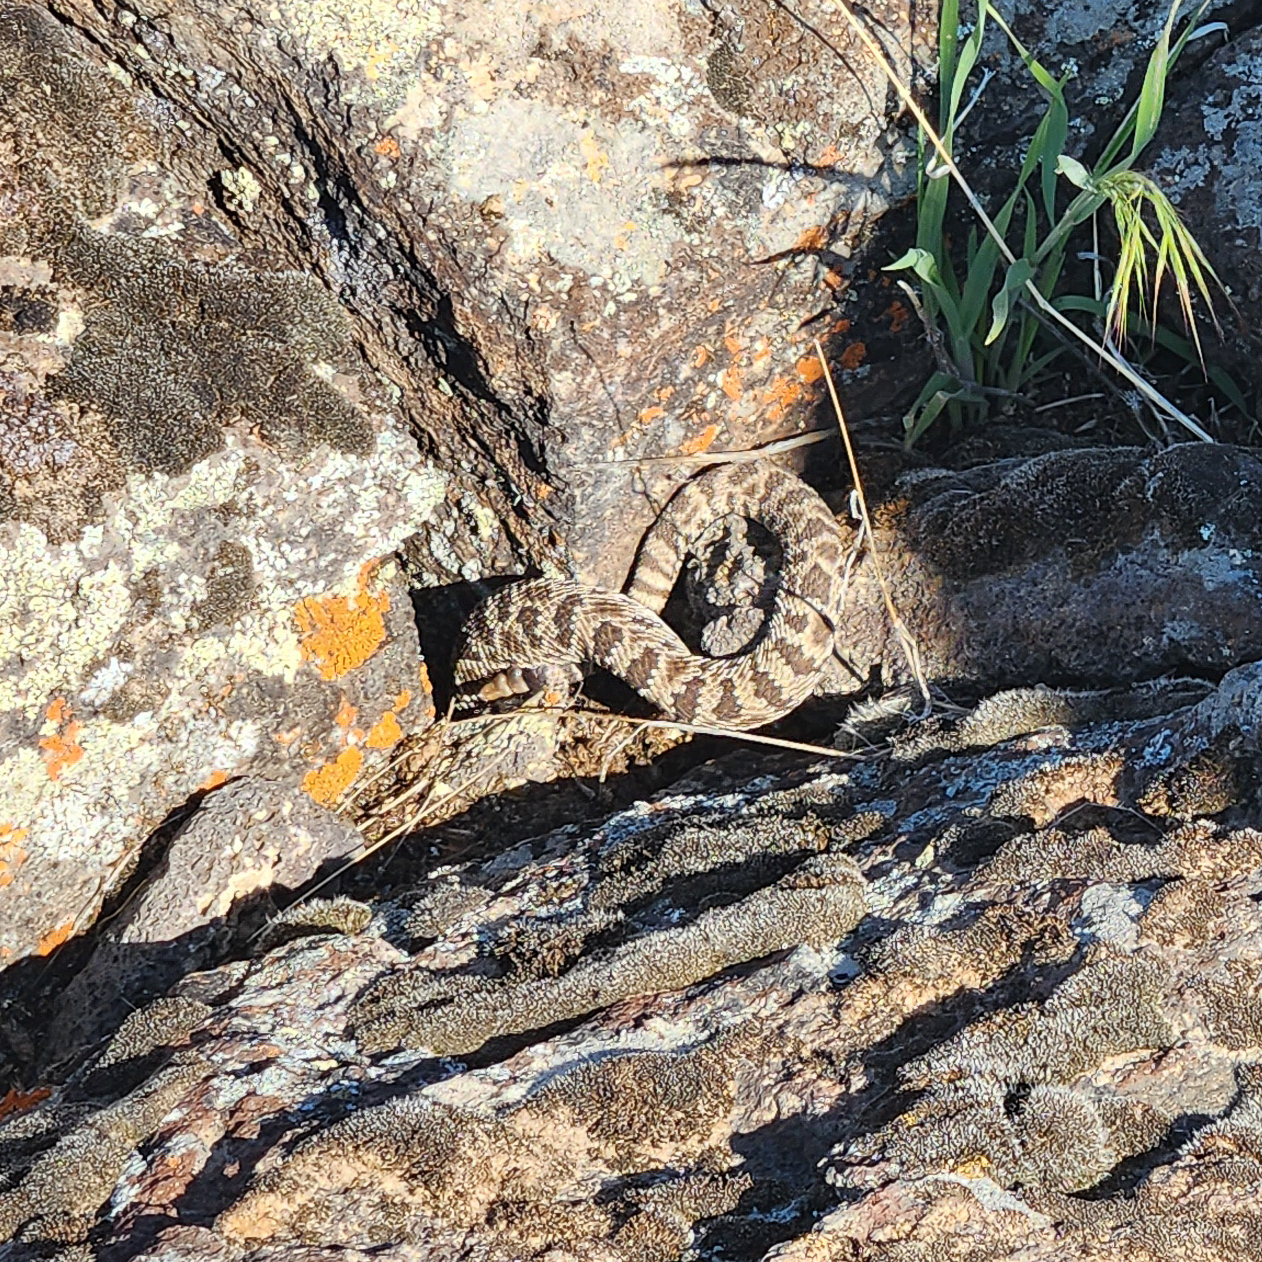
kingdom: Animalia
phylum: Chordata
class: Squamata
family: Viperidae
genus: Crotalus
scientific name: Crotalus oreganus
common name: Abyssus
